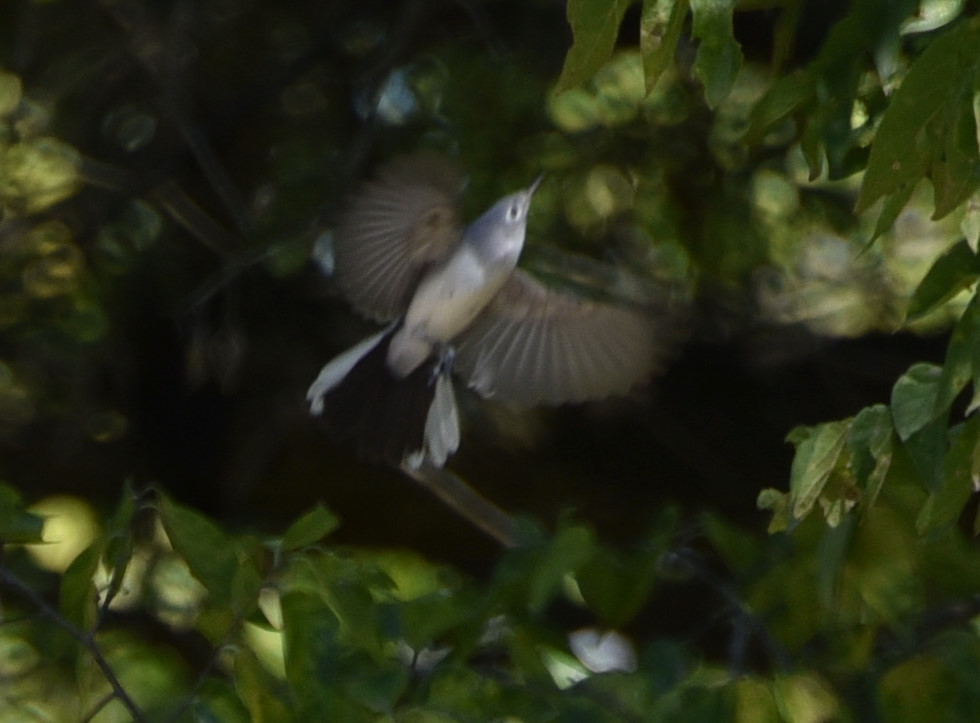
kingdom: Animalia
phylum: Chordata
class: Aves
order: Passeriformes
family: Polioptilidae
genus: Polioptila
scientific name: Polioptila caerulea
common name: Blue-gray gnatcatcher
